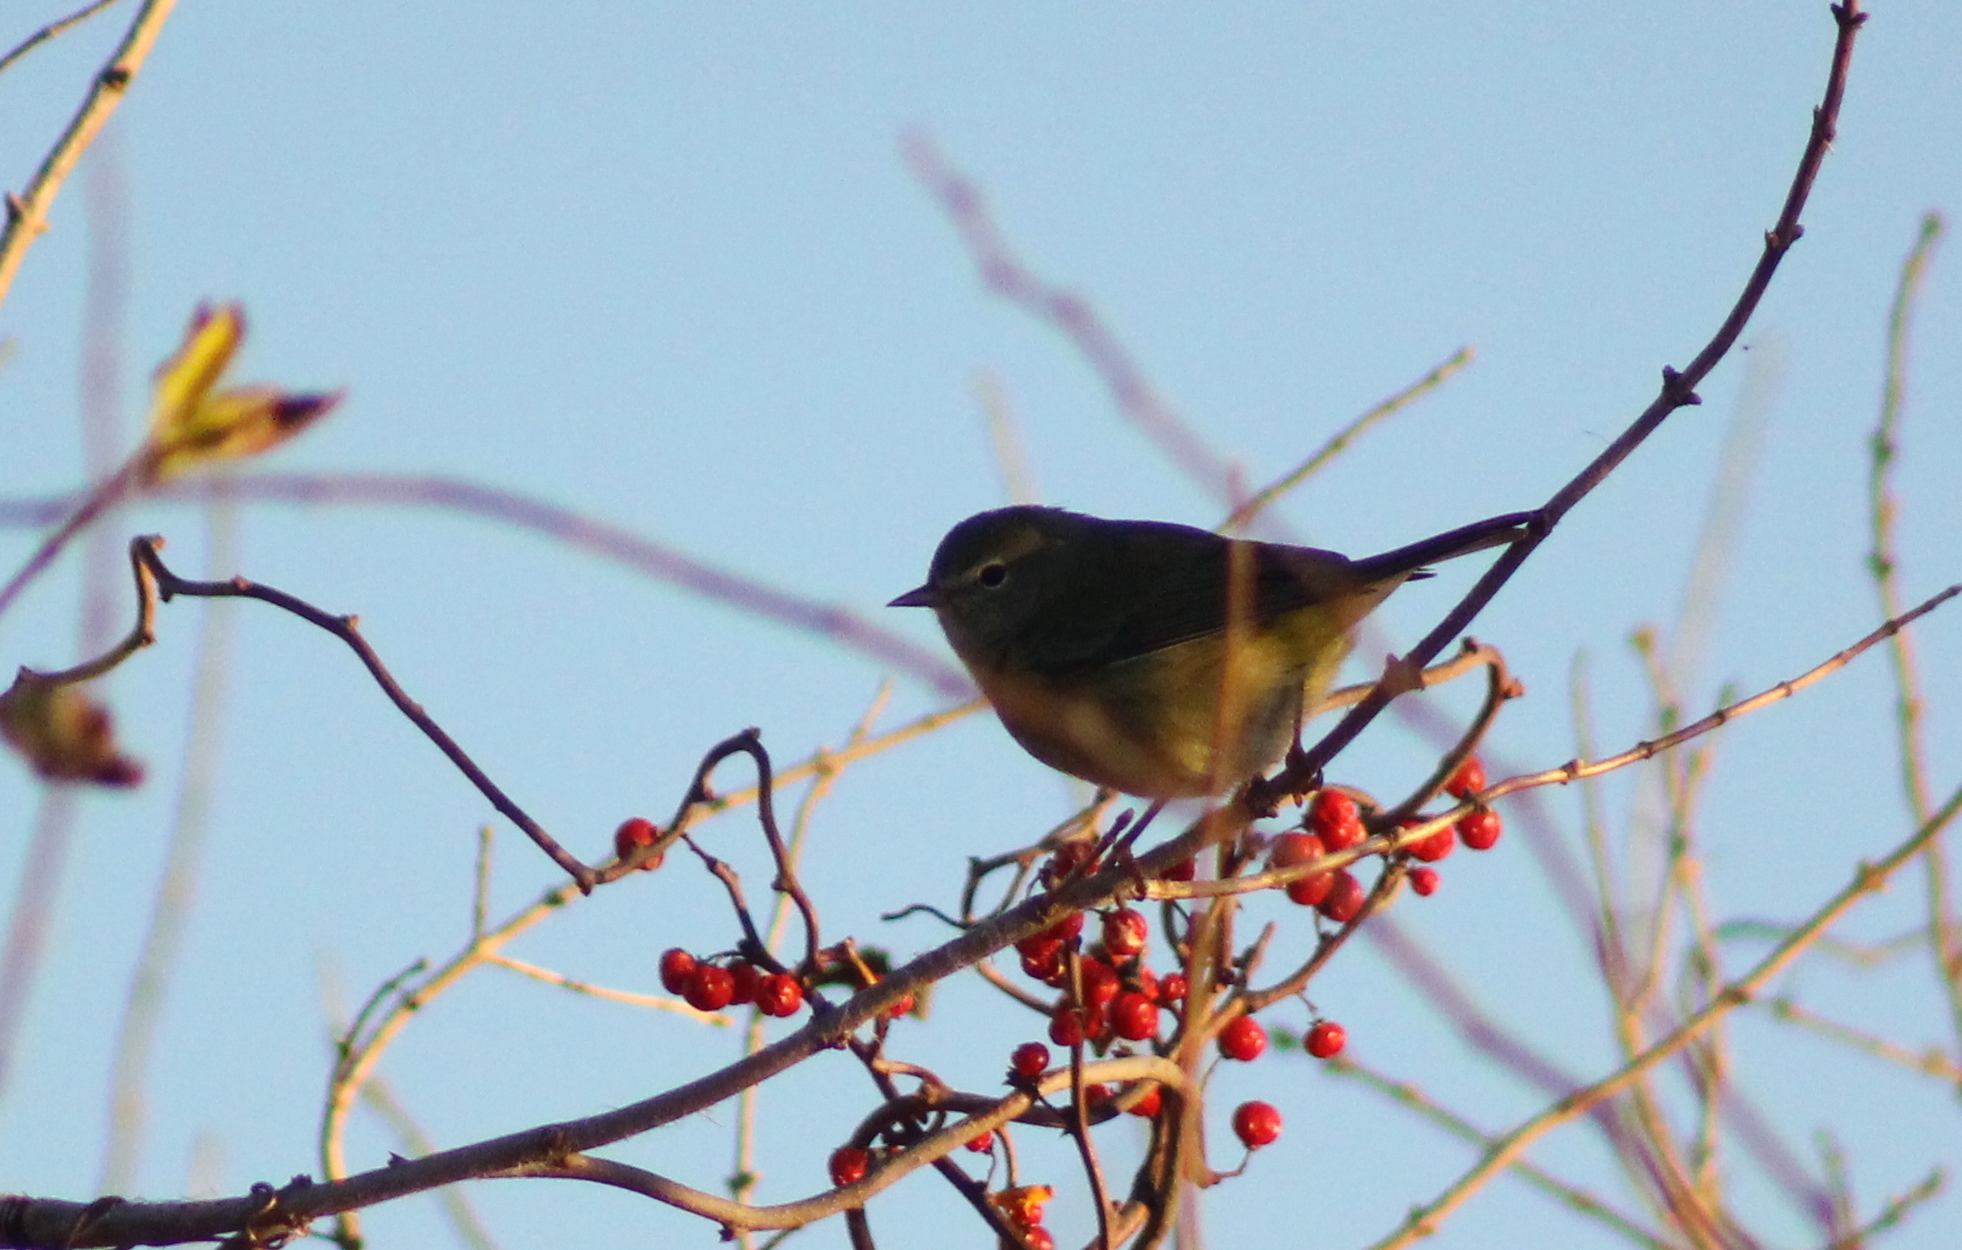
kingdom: Animalia
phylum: Chordata
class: Aves
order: Passeriformes
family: Parulidae
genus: Leiothlypis
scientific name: Leiothlypis celata
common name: Orange-crowned warbler
